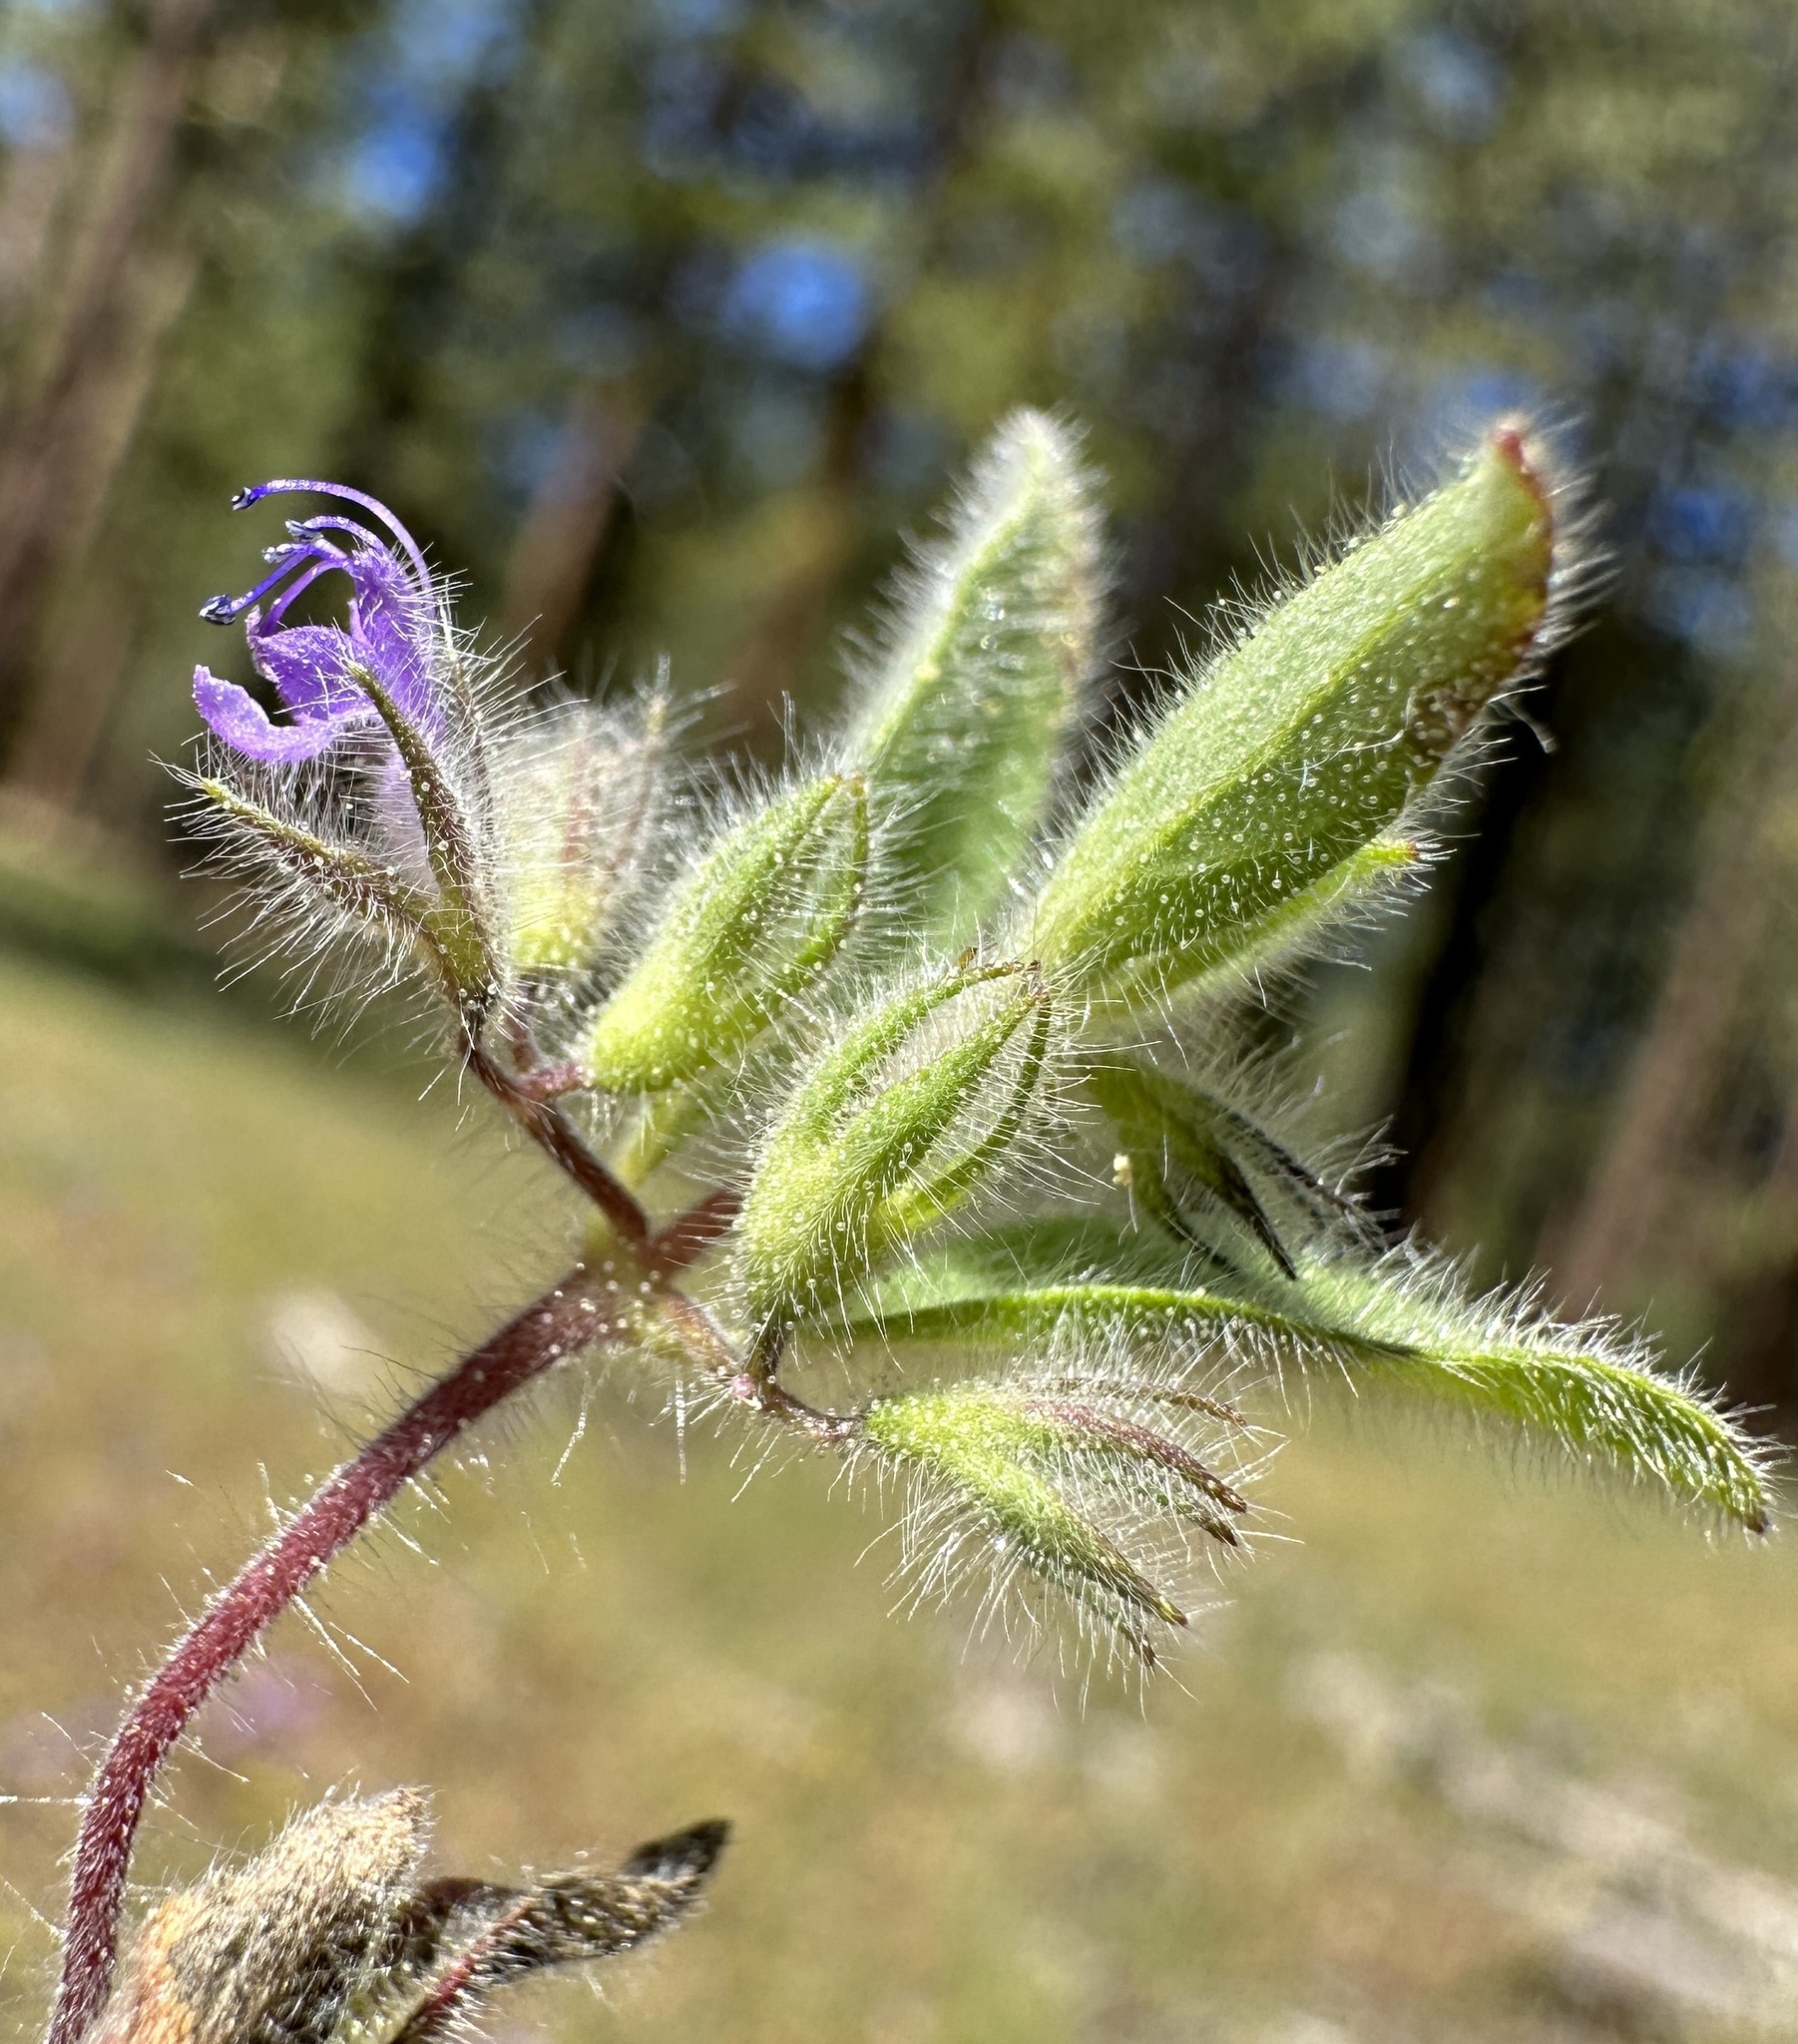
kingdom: Plantae
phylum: Tracheophyta
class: Magnoliopsida
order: Lamiales
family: Lamiaceae
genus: Trichostema
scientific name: Trichostema oblongum
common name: Mountain bluecurls
